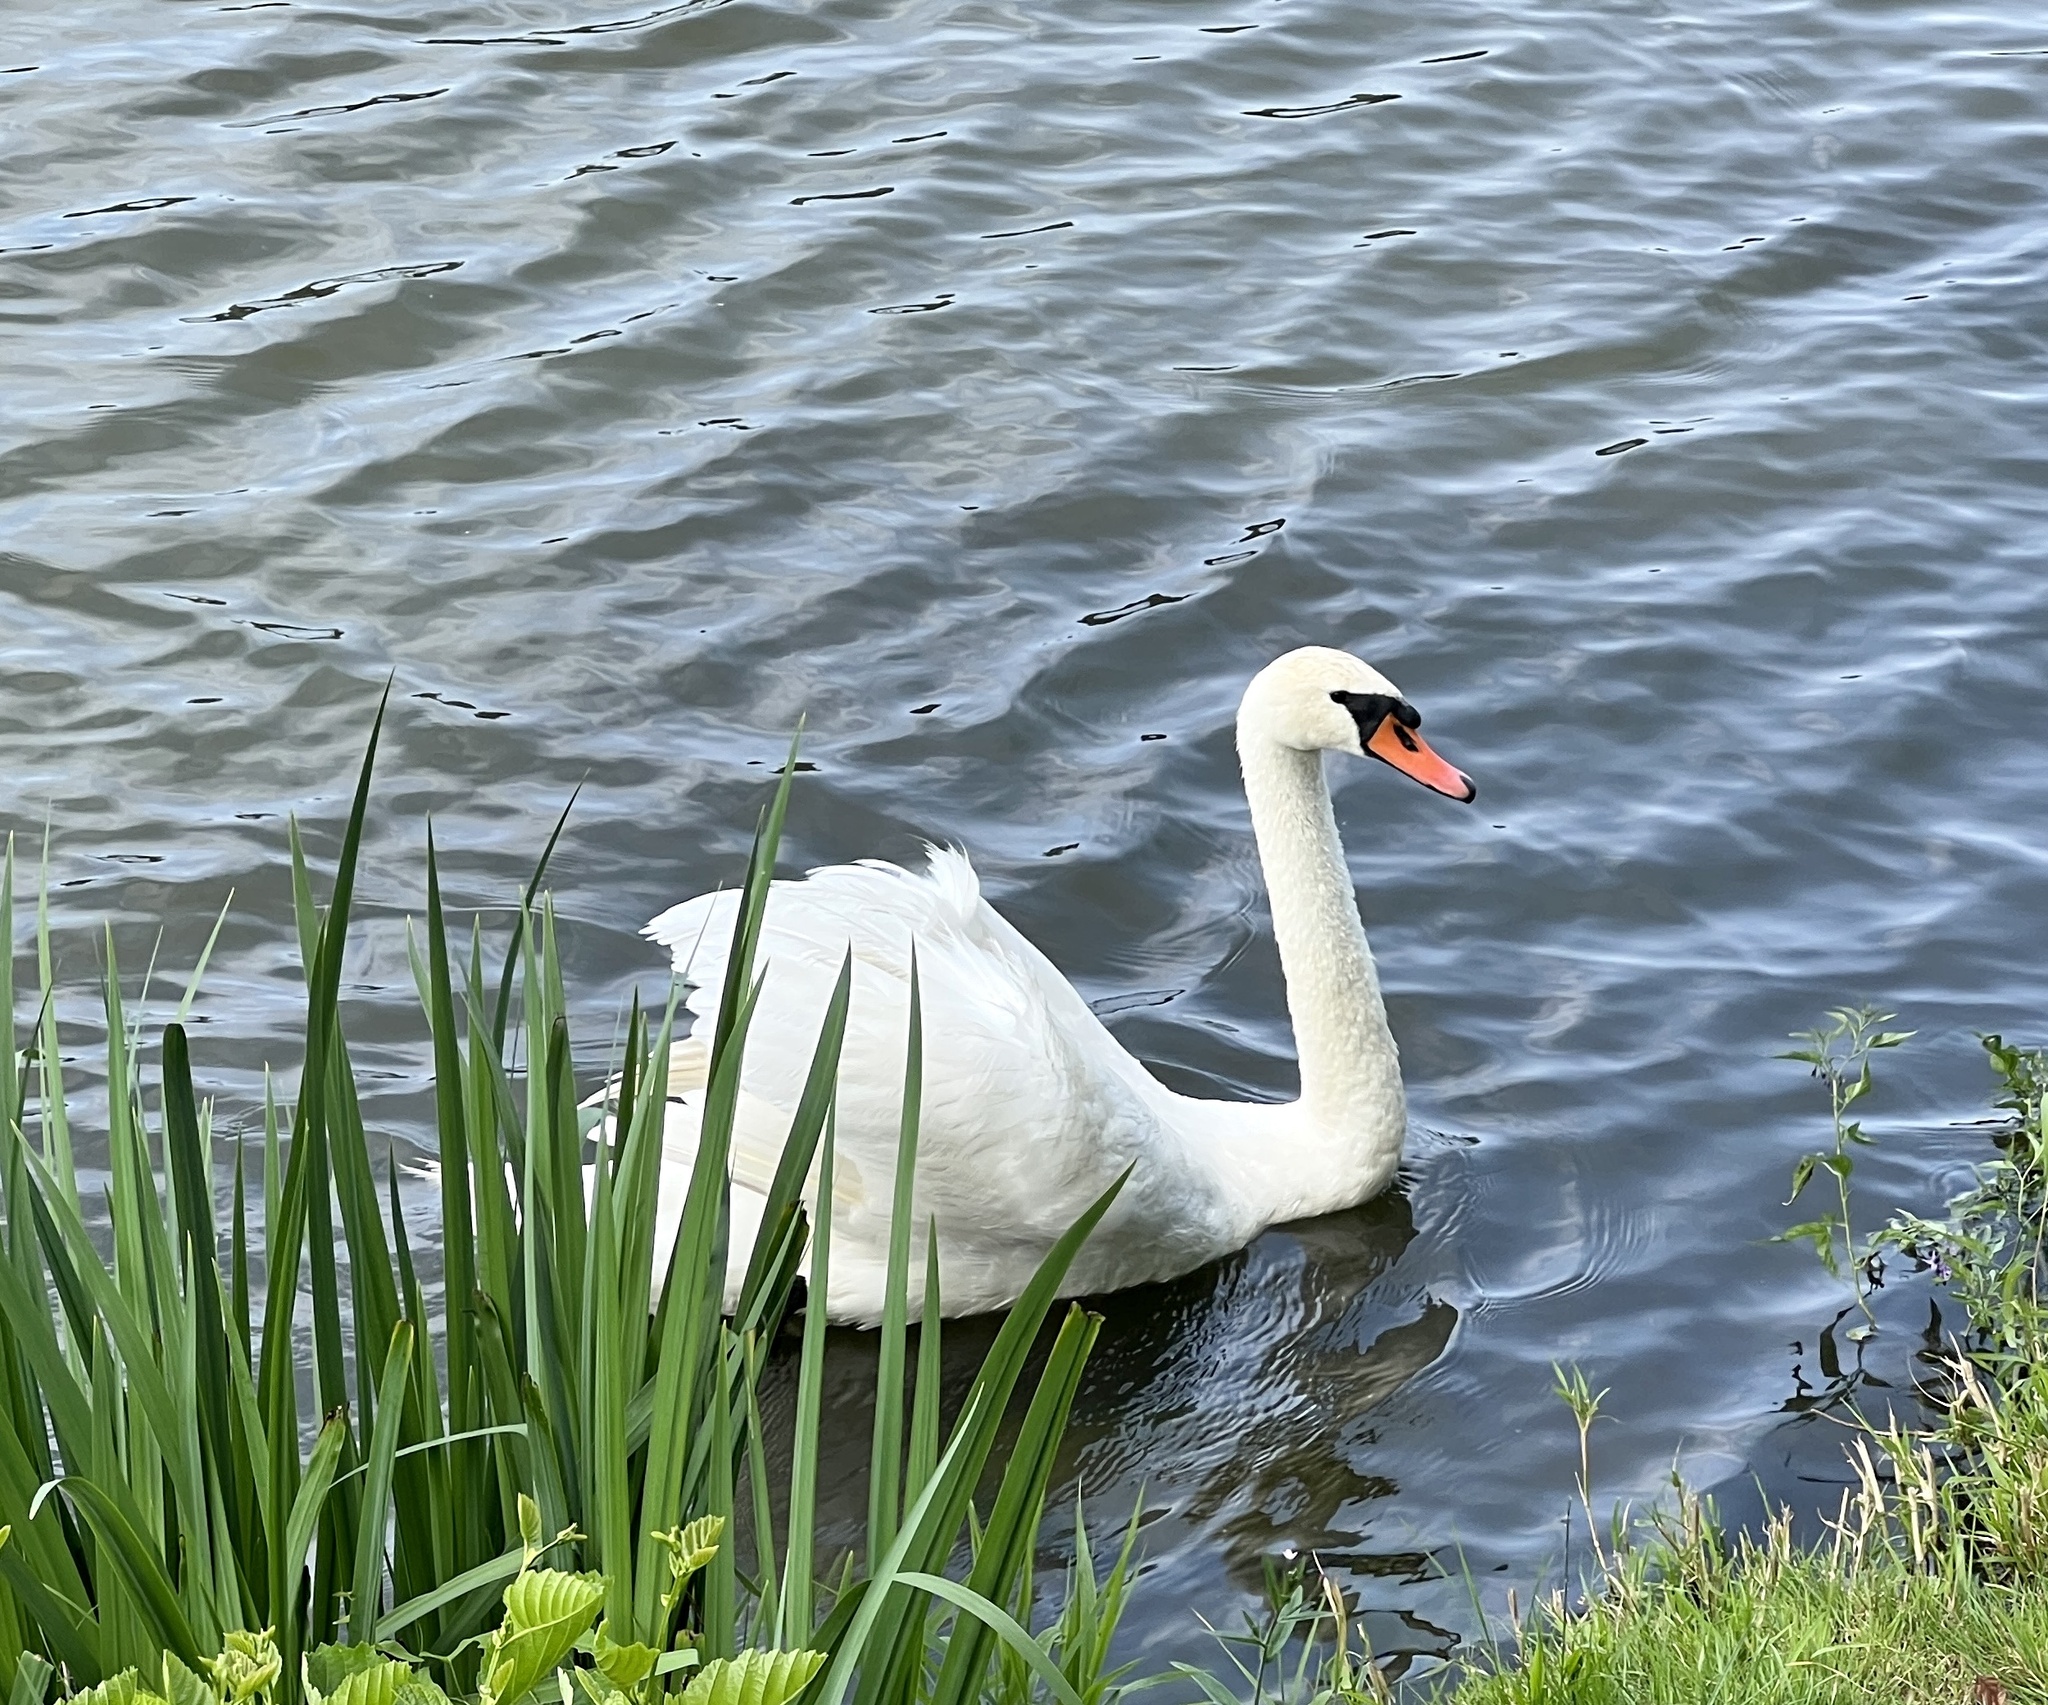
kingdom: Animalia
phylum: Chordata
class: Aves
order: Anseriformes
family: Anatidae
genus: Cygnus
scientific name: Cygnus olor
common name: Mute swan
